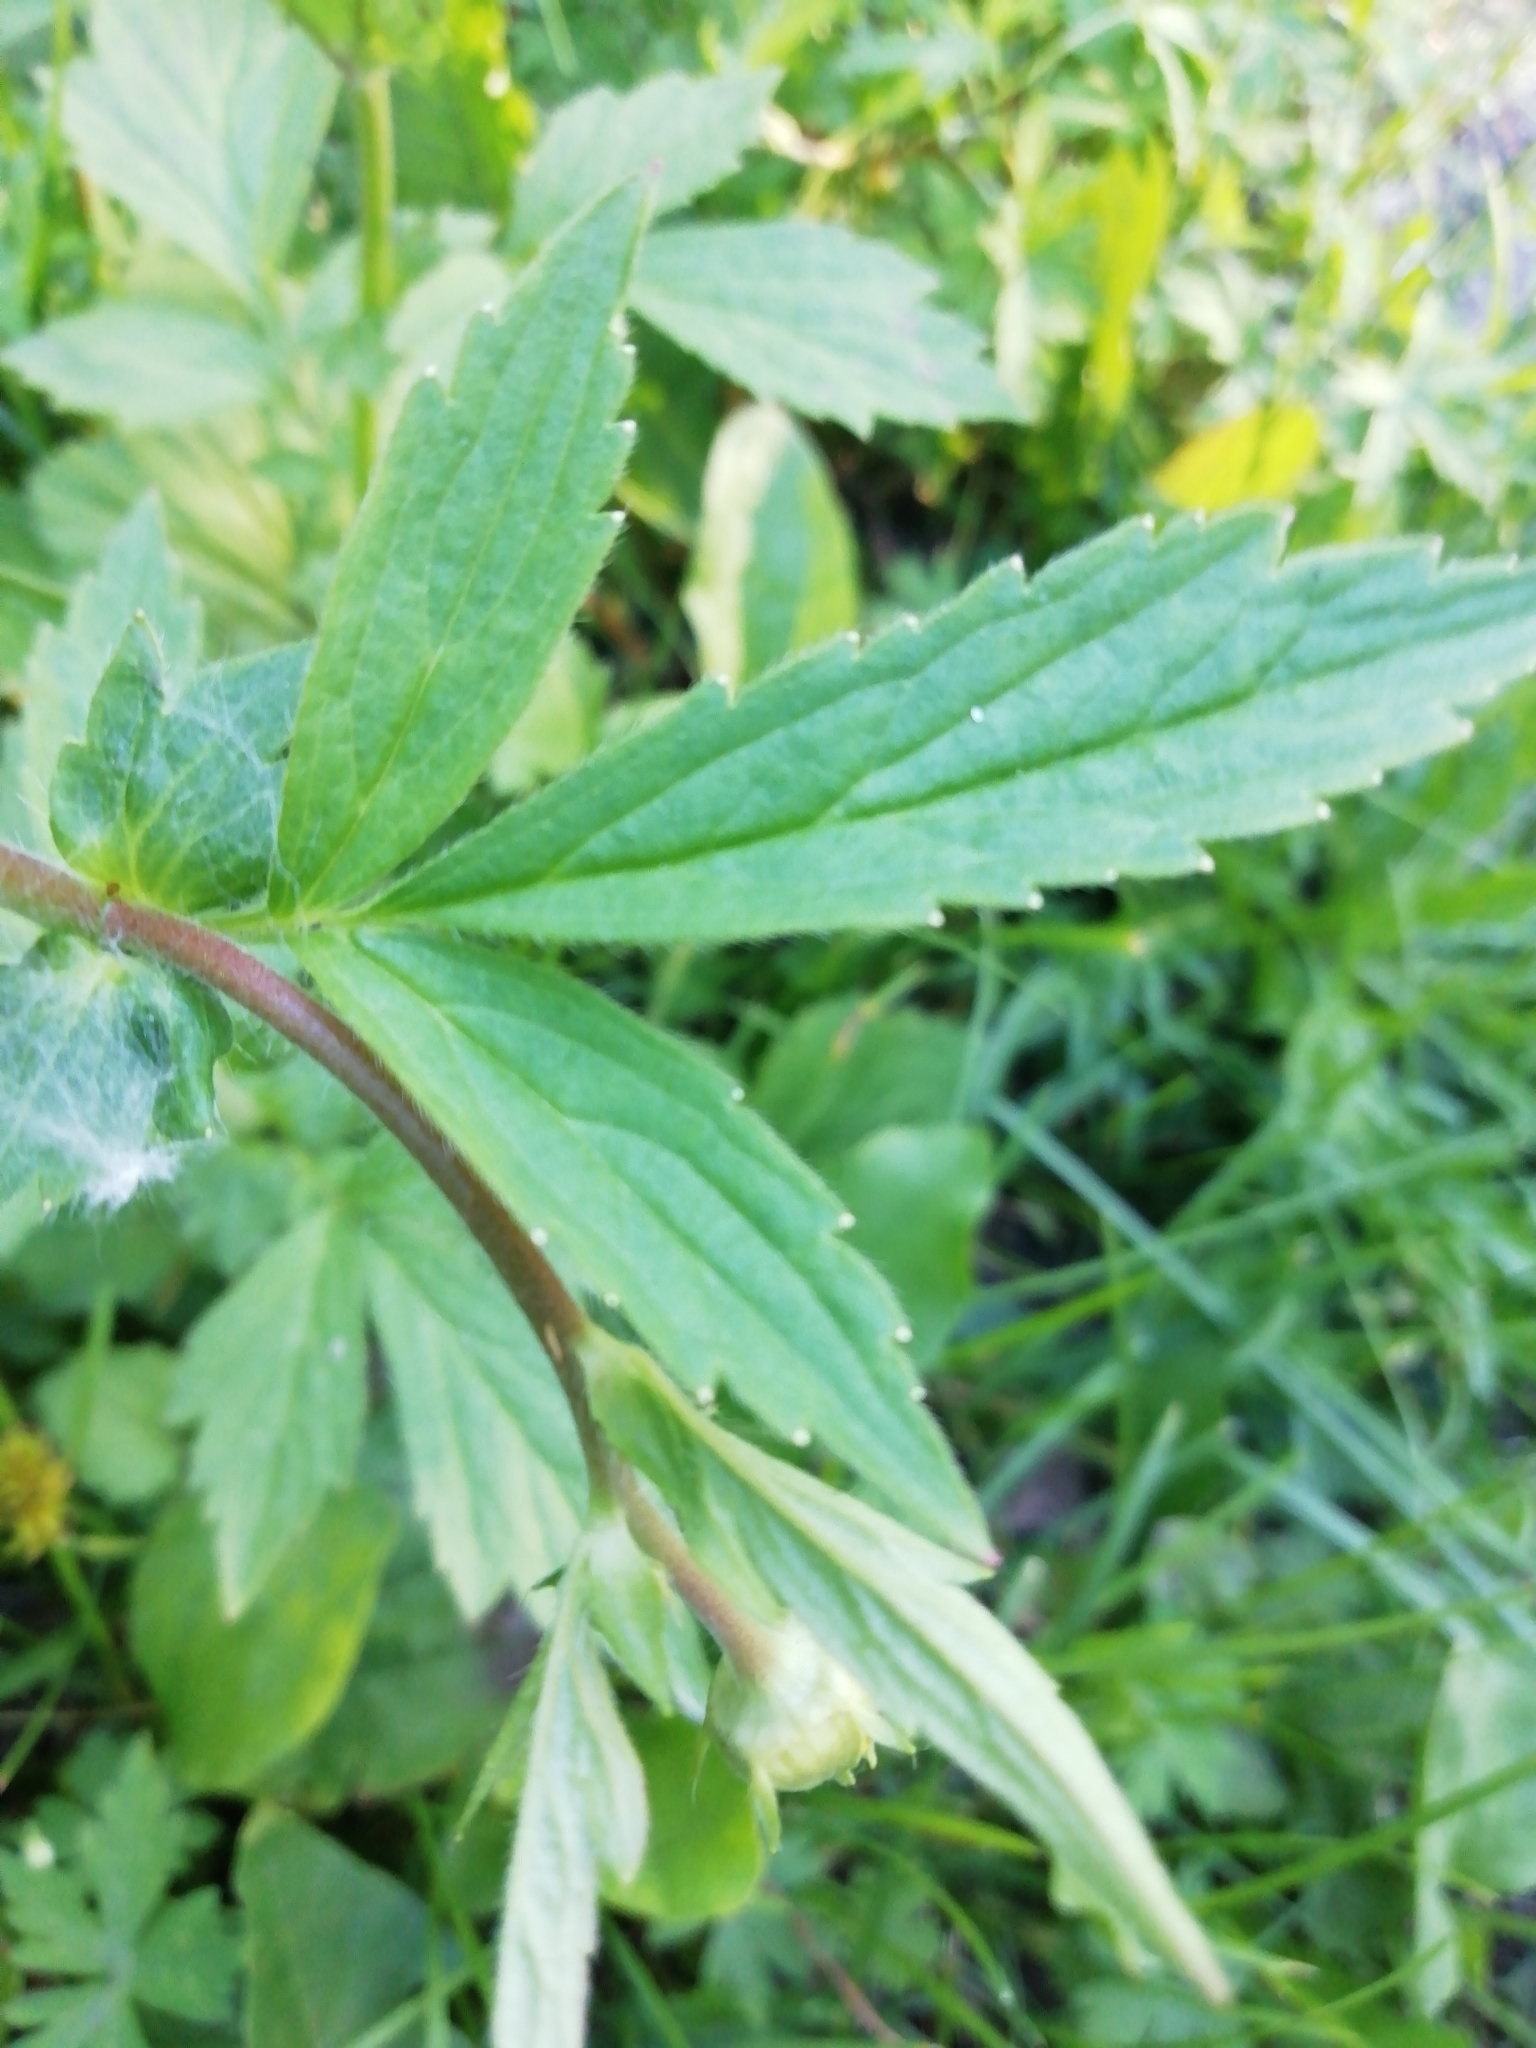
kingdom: Plantae
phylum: Tracheophyta
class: Magnoliopsida
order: Rosales
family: Rosaceae
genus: Geum
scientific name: Geum aleppicum
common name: Yellow avens
